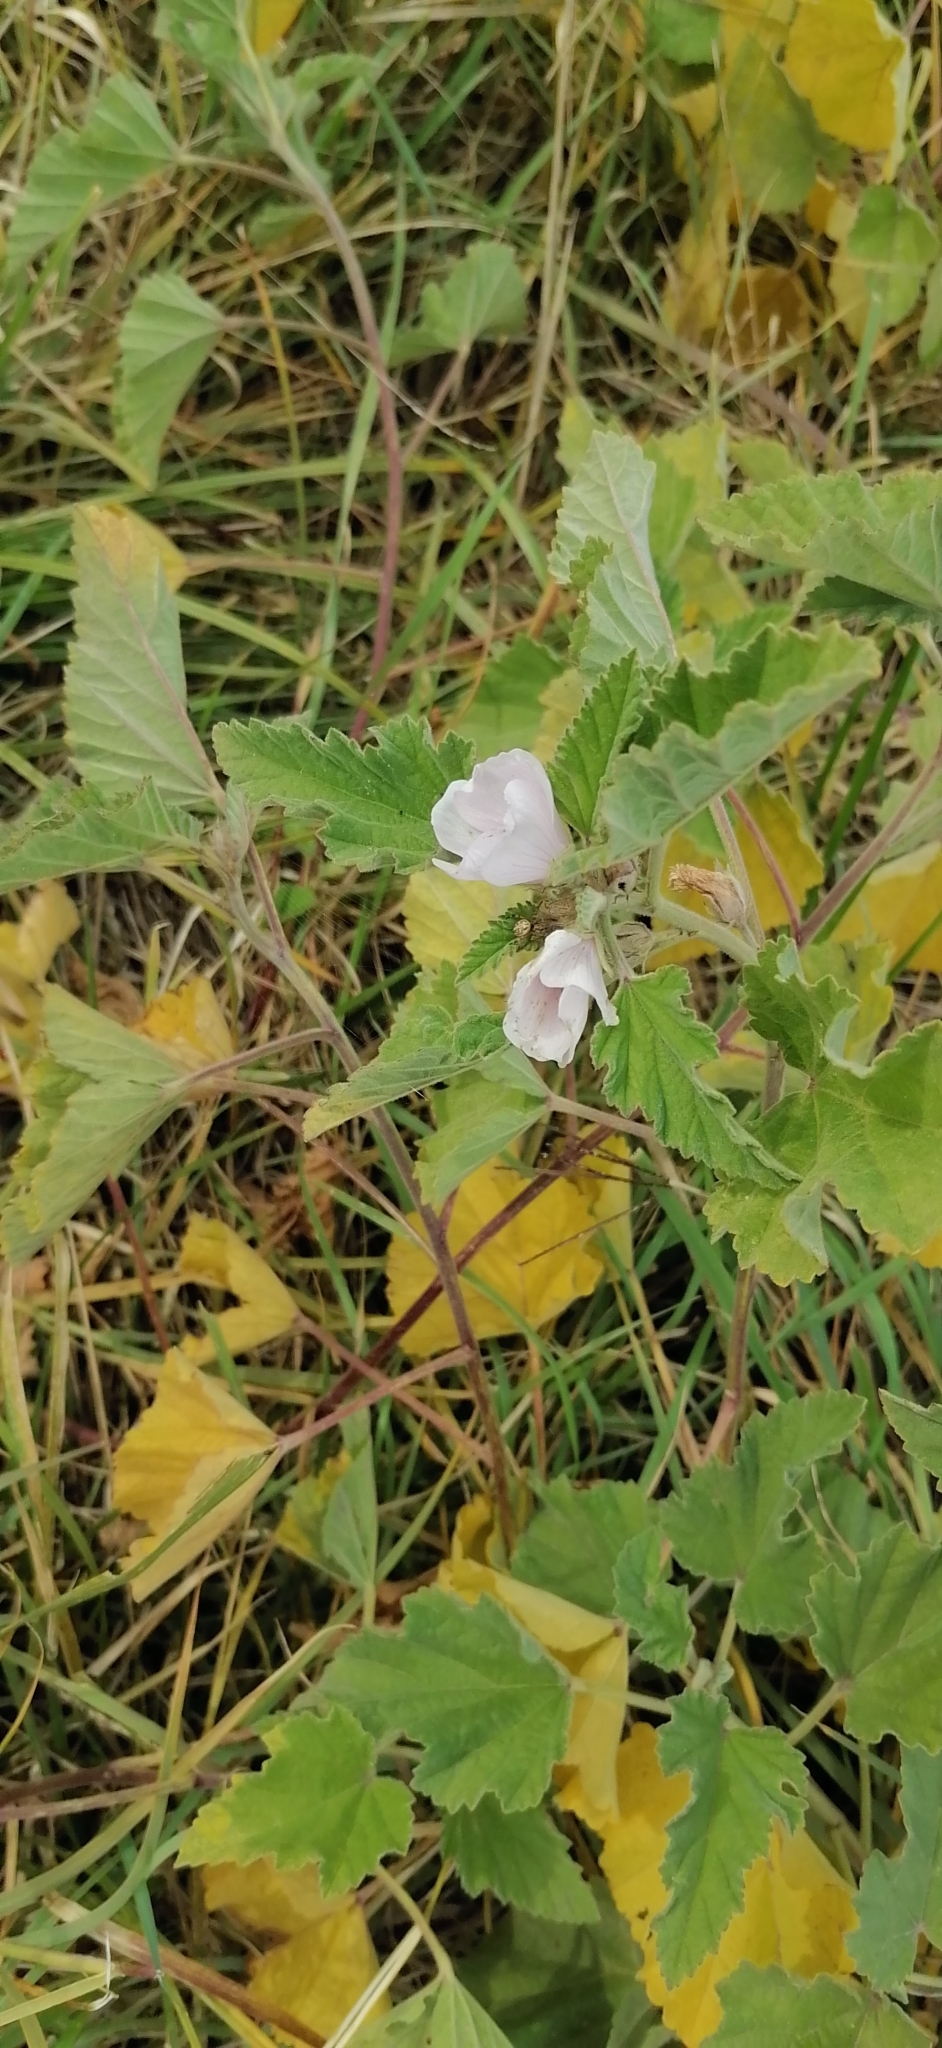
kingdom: Plantae
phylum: Tracheophyta
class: Magnoliopsida
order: Malvales
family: Malvaceae
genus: Althaea
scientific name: Althaea officinalis
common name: Marsh-mallow
